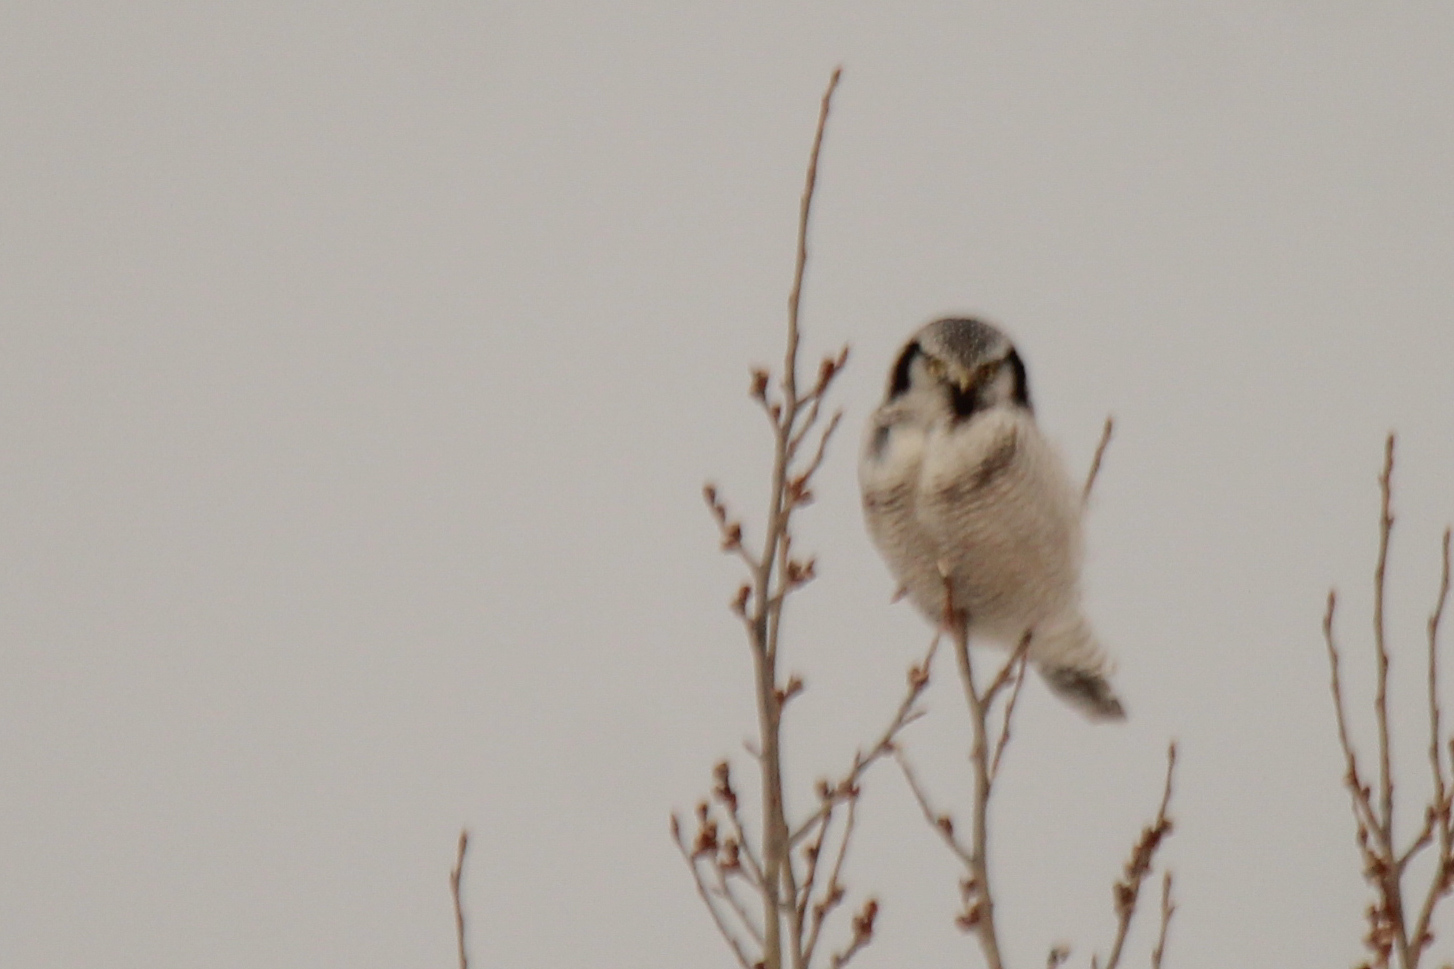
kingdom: Animalia
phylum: Chordata
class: Aves
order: Strigiformes
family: Strigidae
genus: Surnia
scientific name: Surnia ulula
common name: Northern hawk-owl
